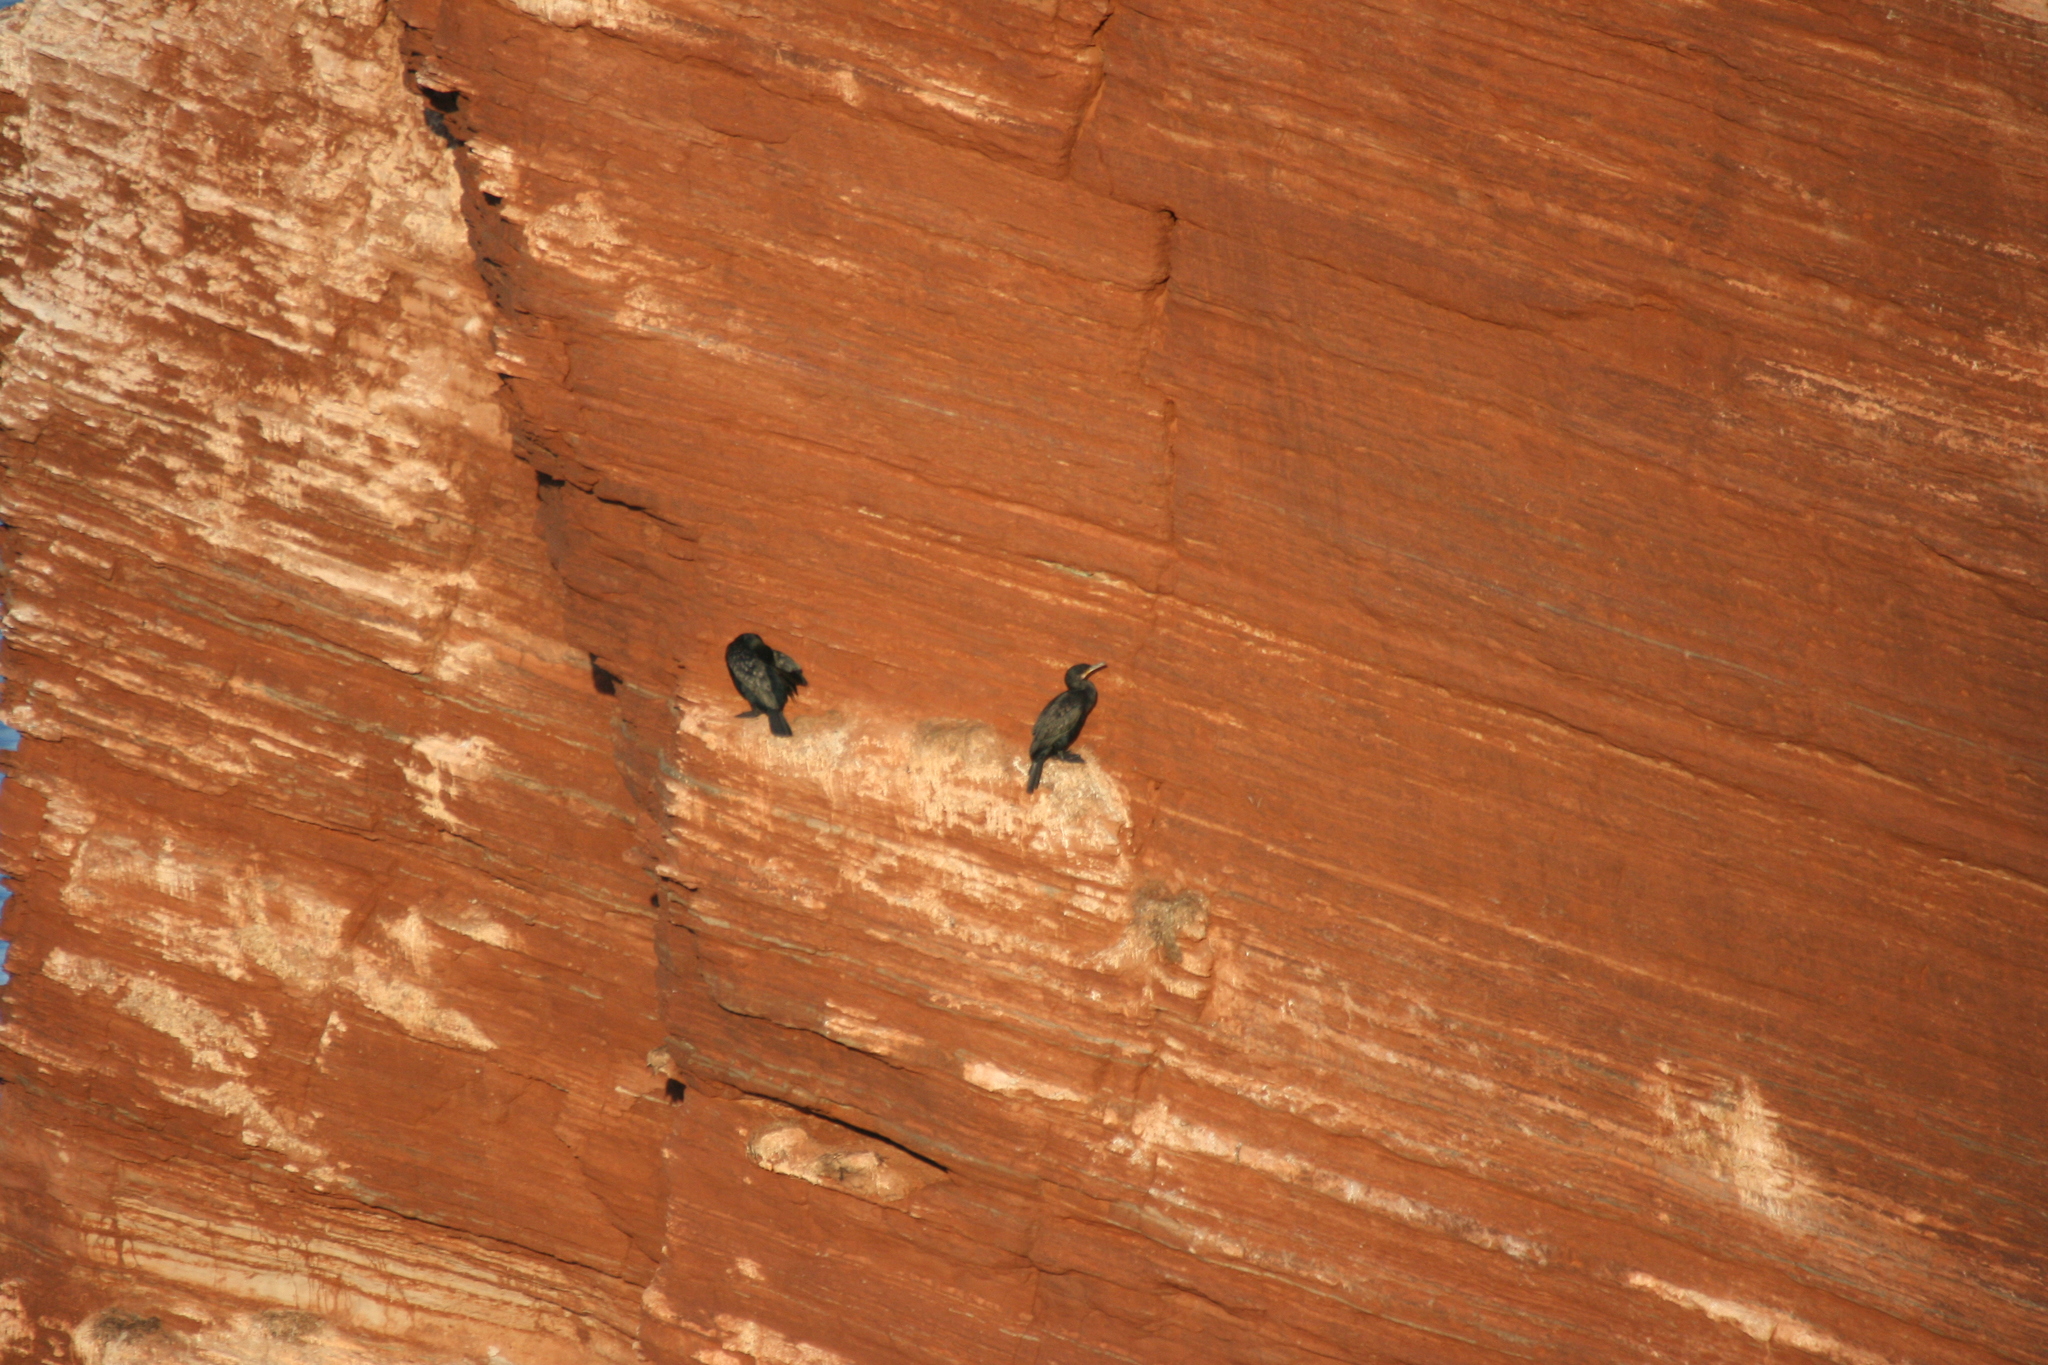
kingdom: Animalia
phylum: Chordata
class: Aves
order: Suliformes
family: Phalacrocoracidae
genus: Phalacrocorax
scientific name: Phalacrocorax carbo
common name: Great cormorant
